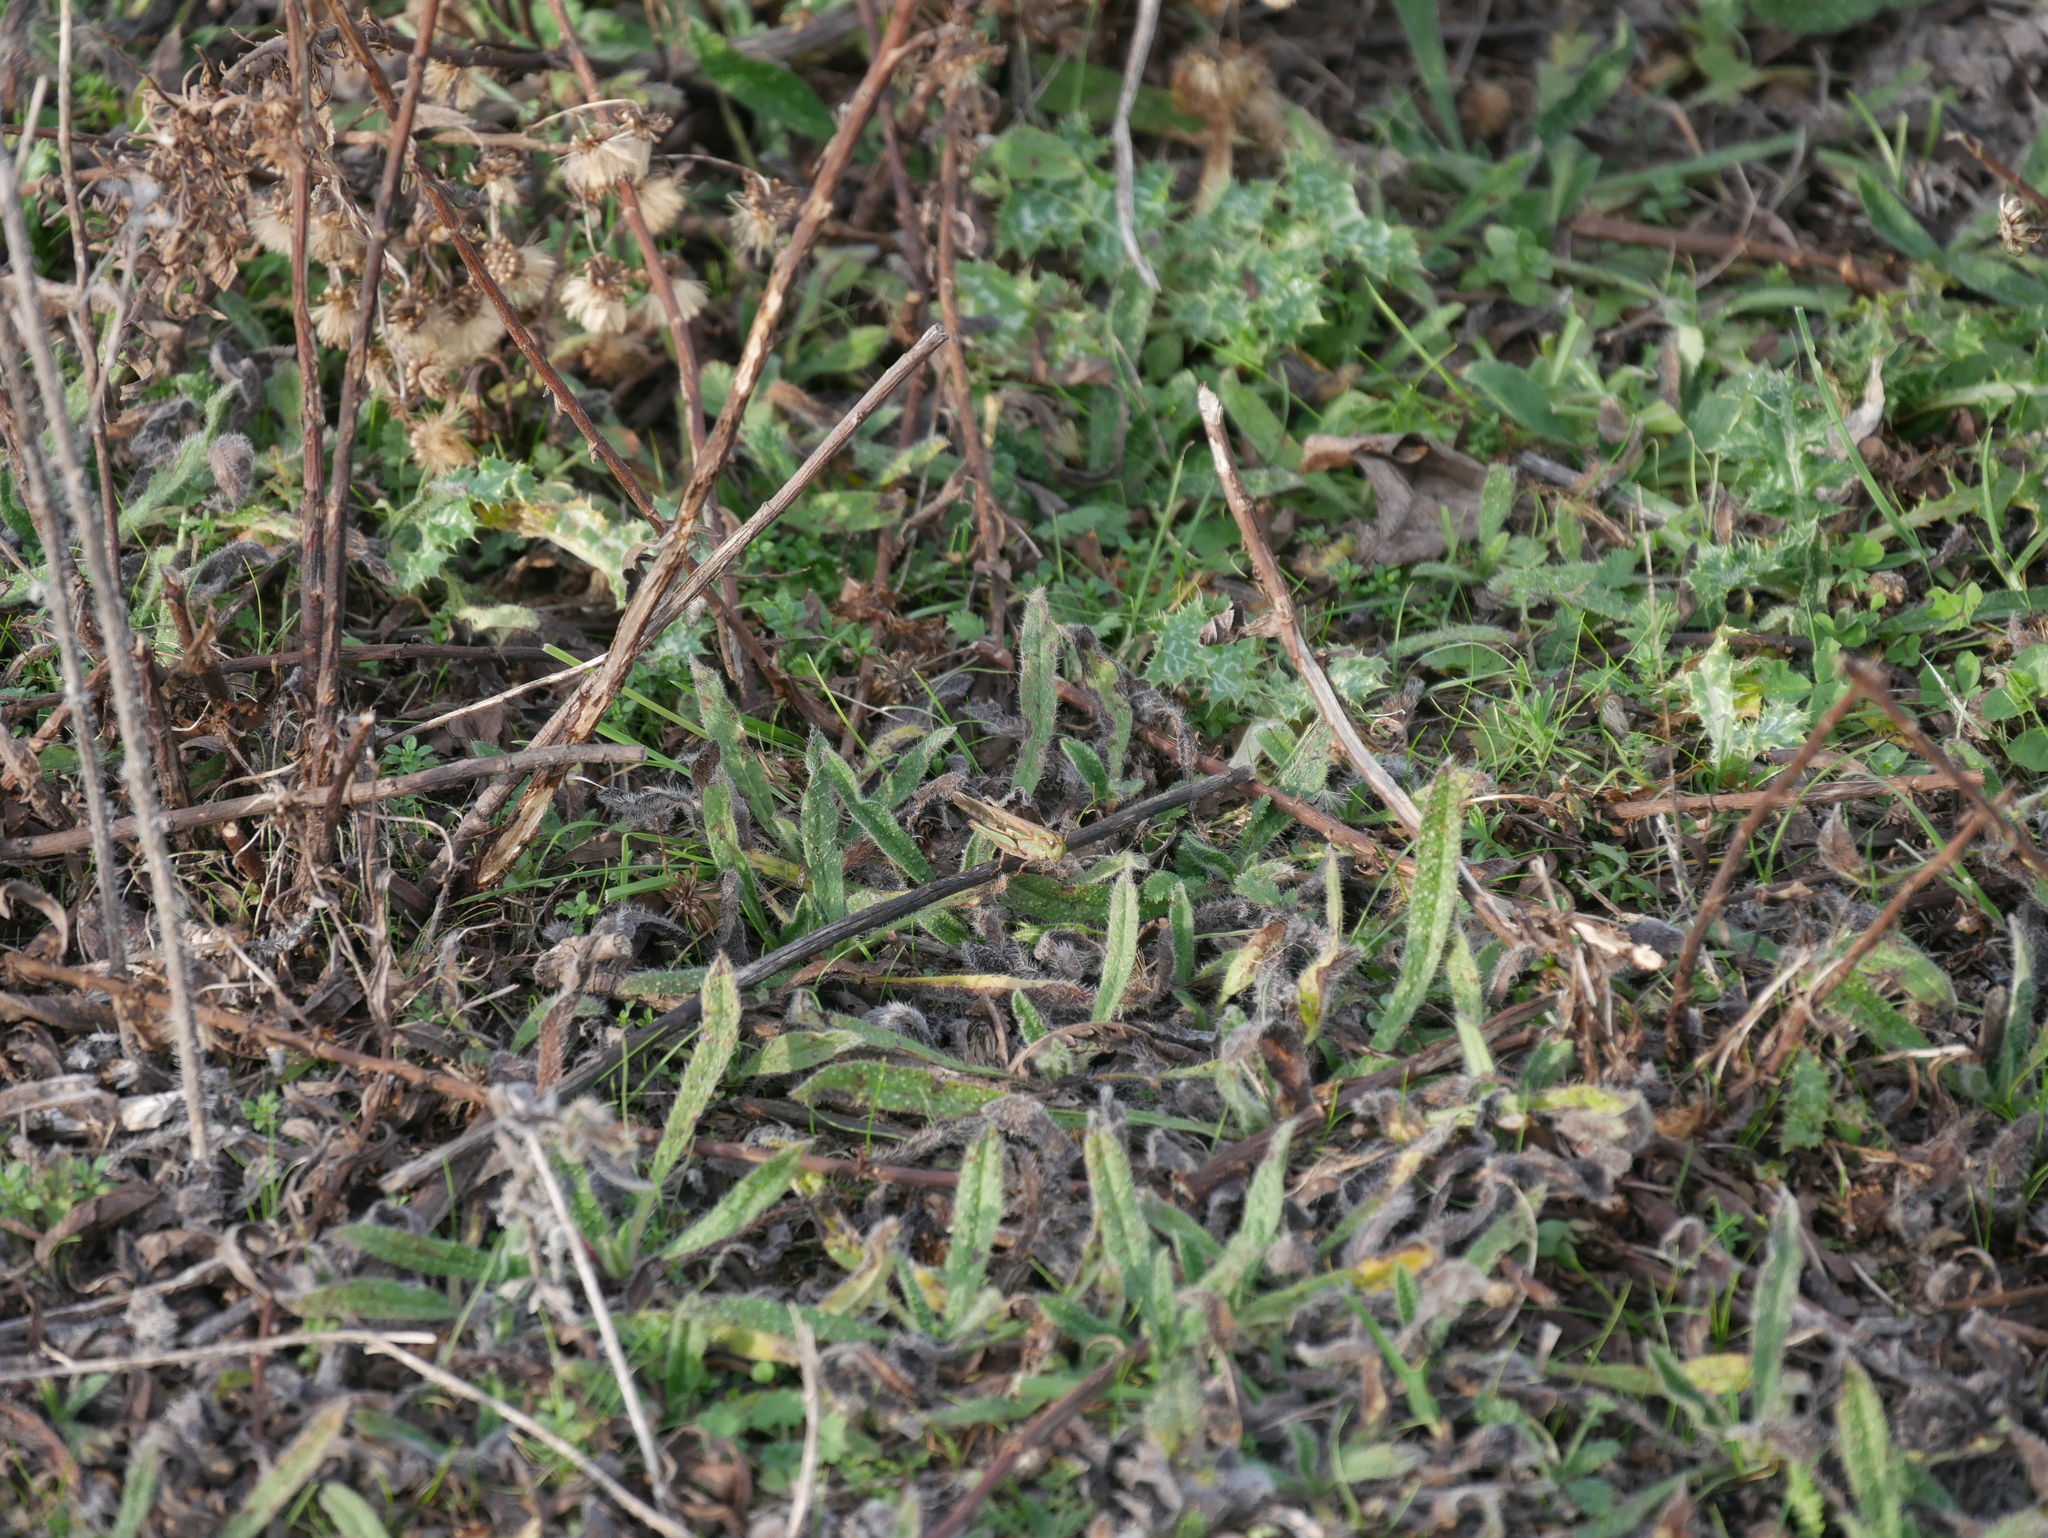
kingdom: Animalia
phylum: Arthropoda
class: Insecta
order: Orthoptera
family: Acrididae
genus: Aiolopus
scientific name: Aiolopus puissanti
